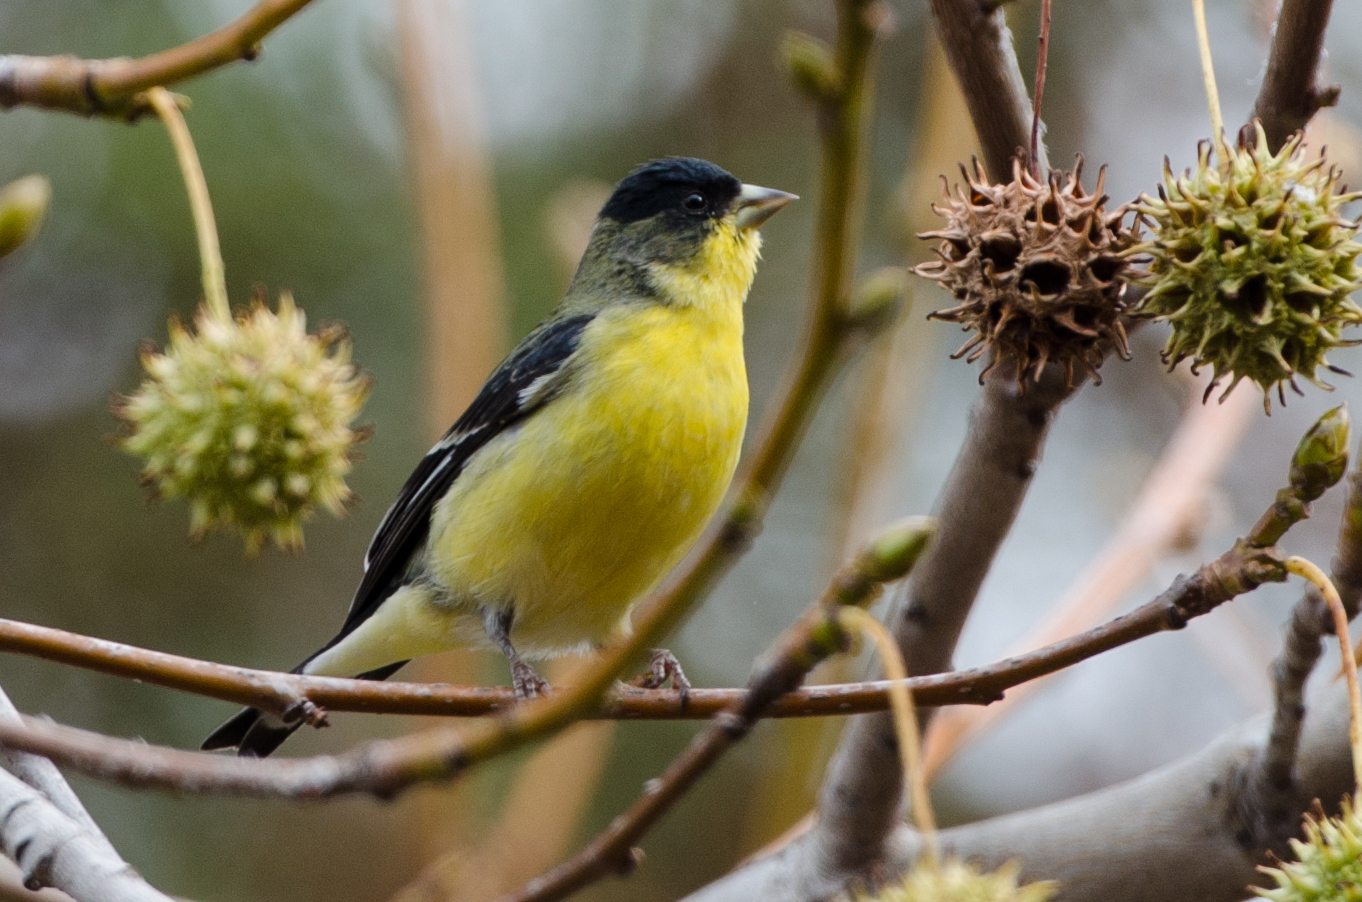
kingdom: Animalia
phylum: Chordata
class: Aves
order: Passeriformes
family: Fringillidae
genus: Spinus
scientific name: Spinus psaltria
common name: Lesser goldfinch
